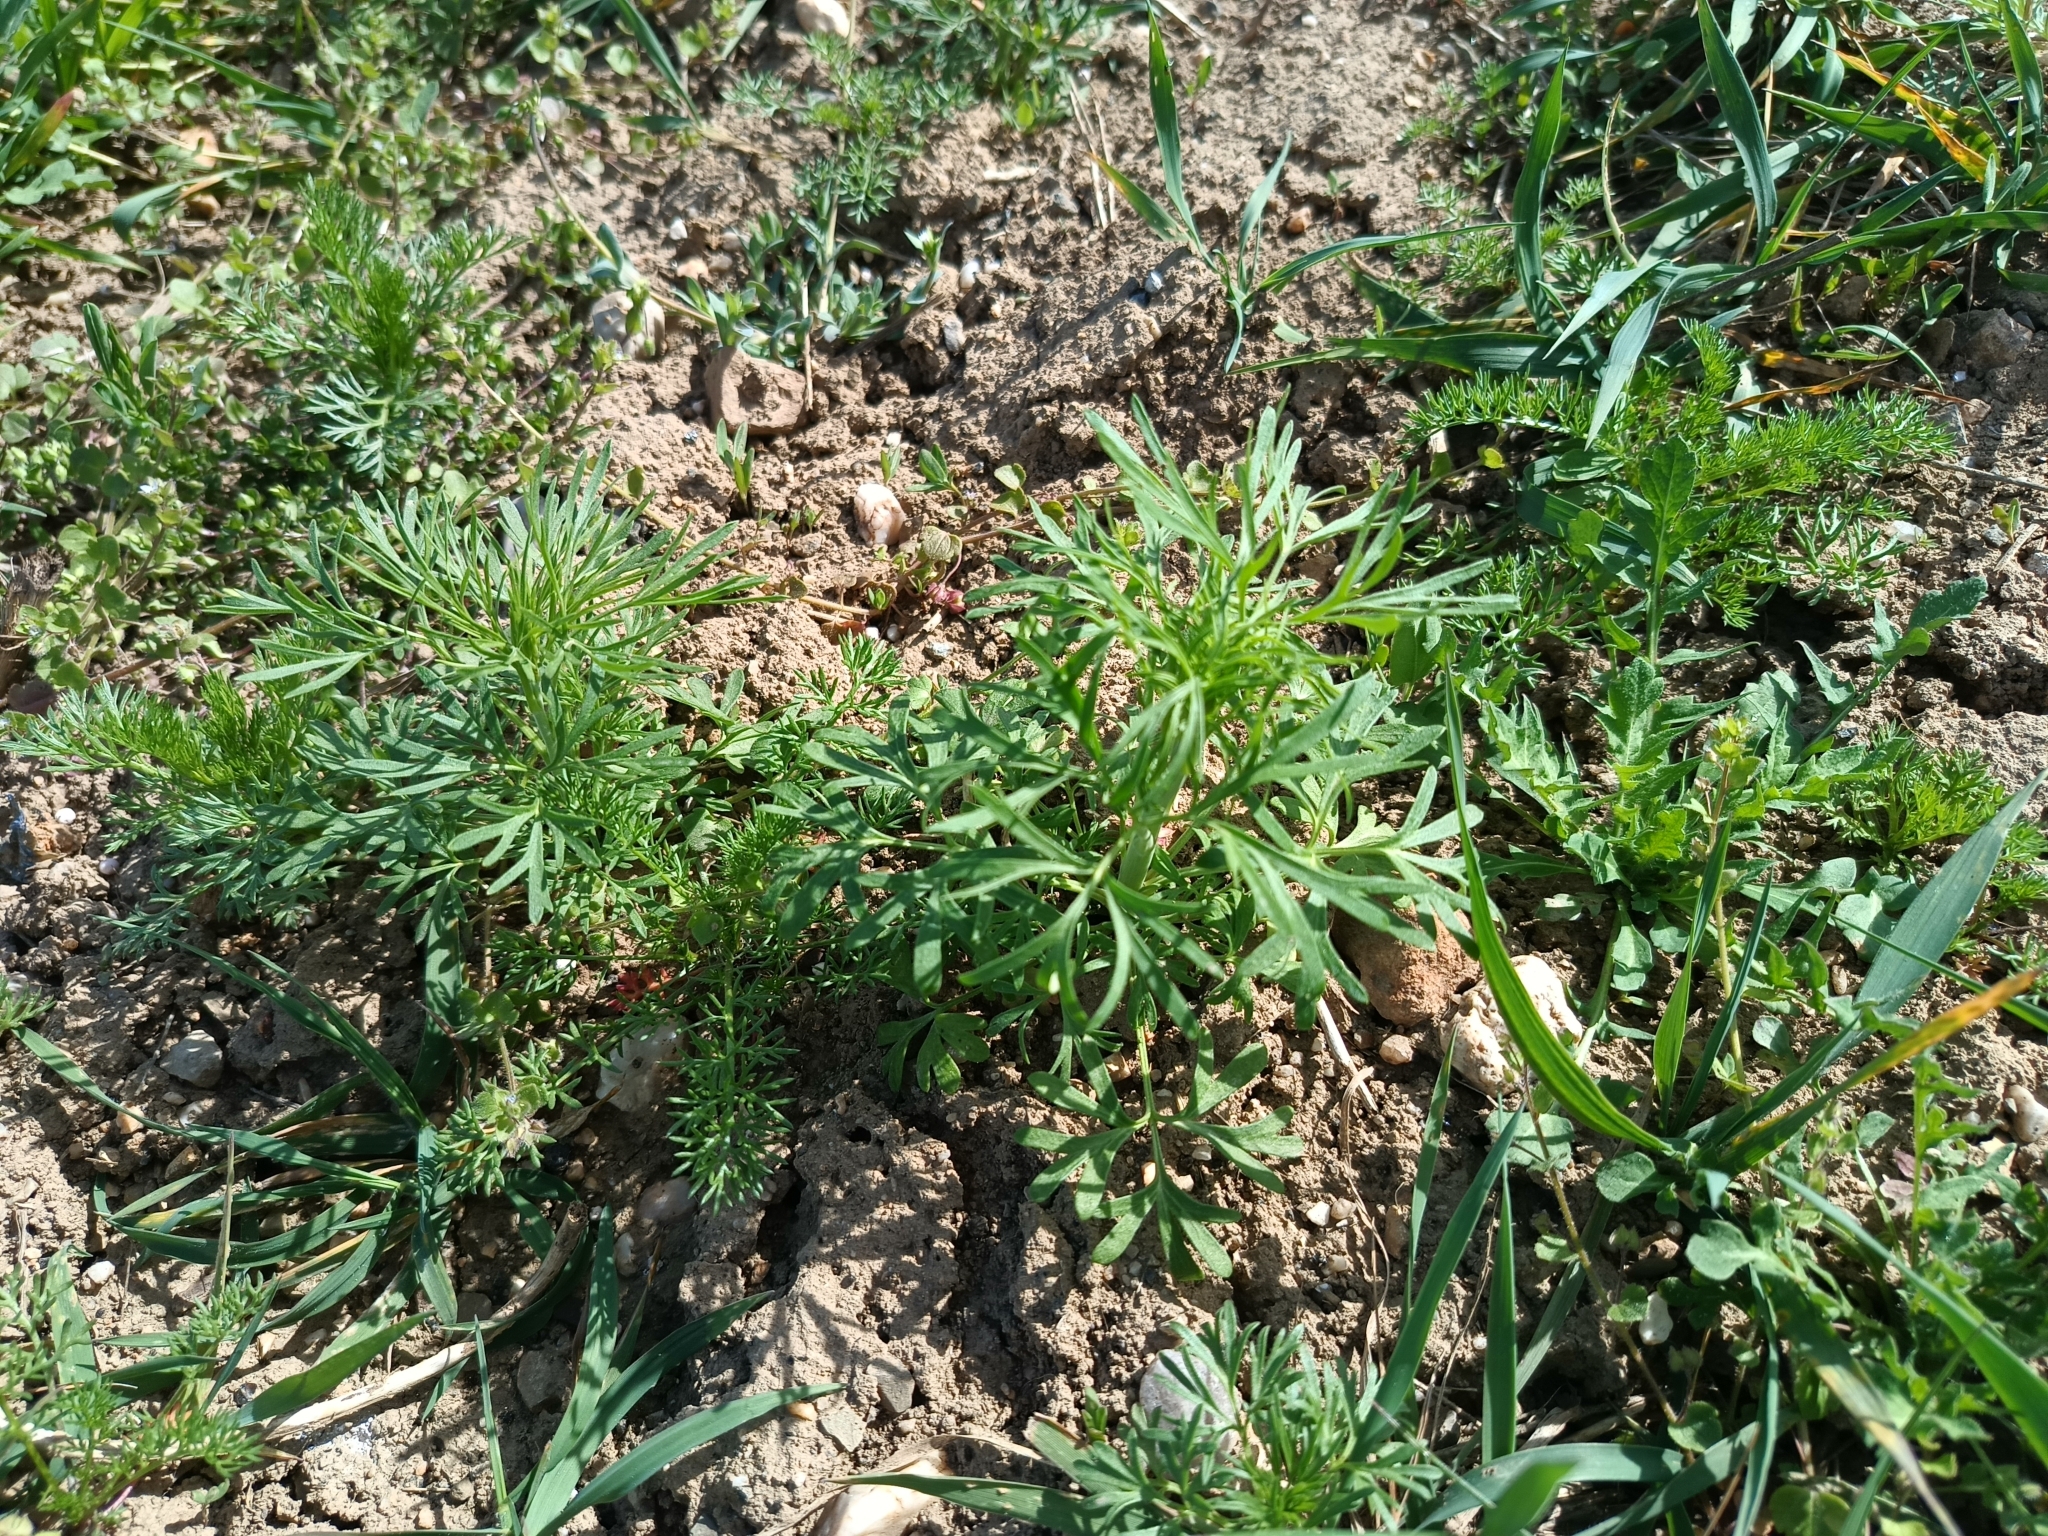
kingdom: Plantae
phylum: Tracheophyta
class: Magnoliopsida
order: Ranunculales
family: Ranunculaceae
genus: Delphinium
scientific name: Delphinium consolida
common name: Branching larkspur
